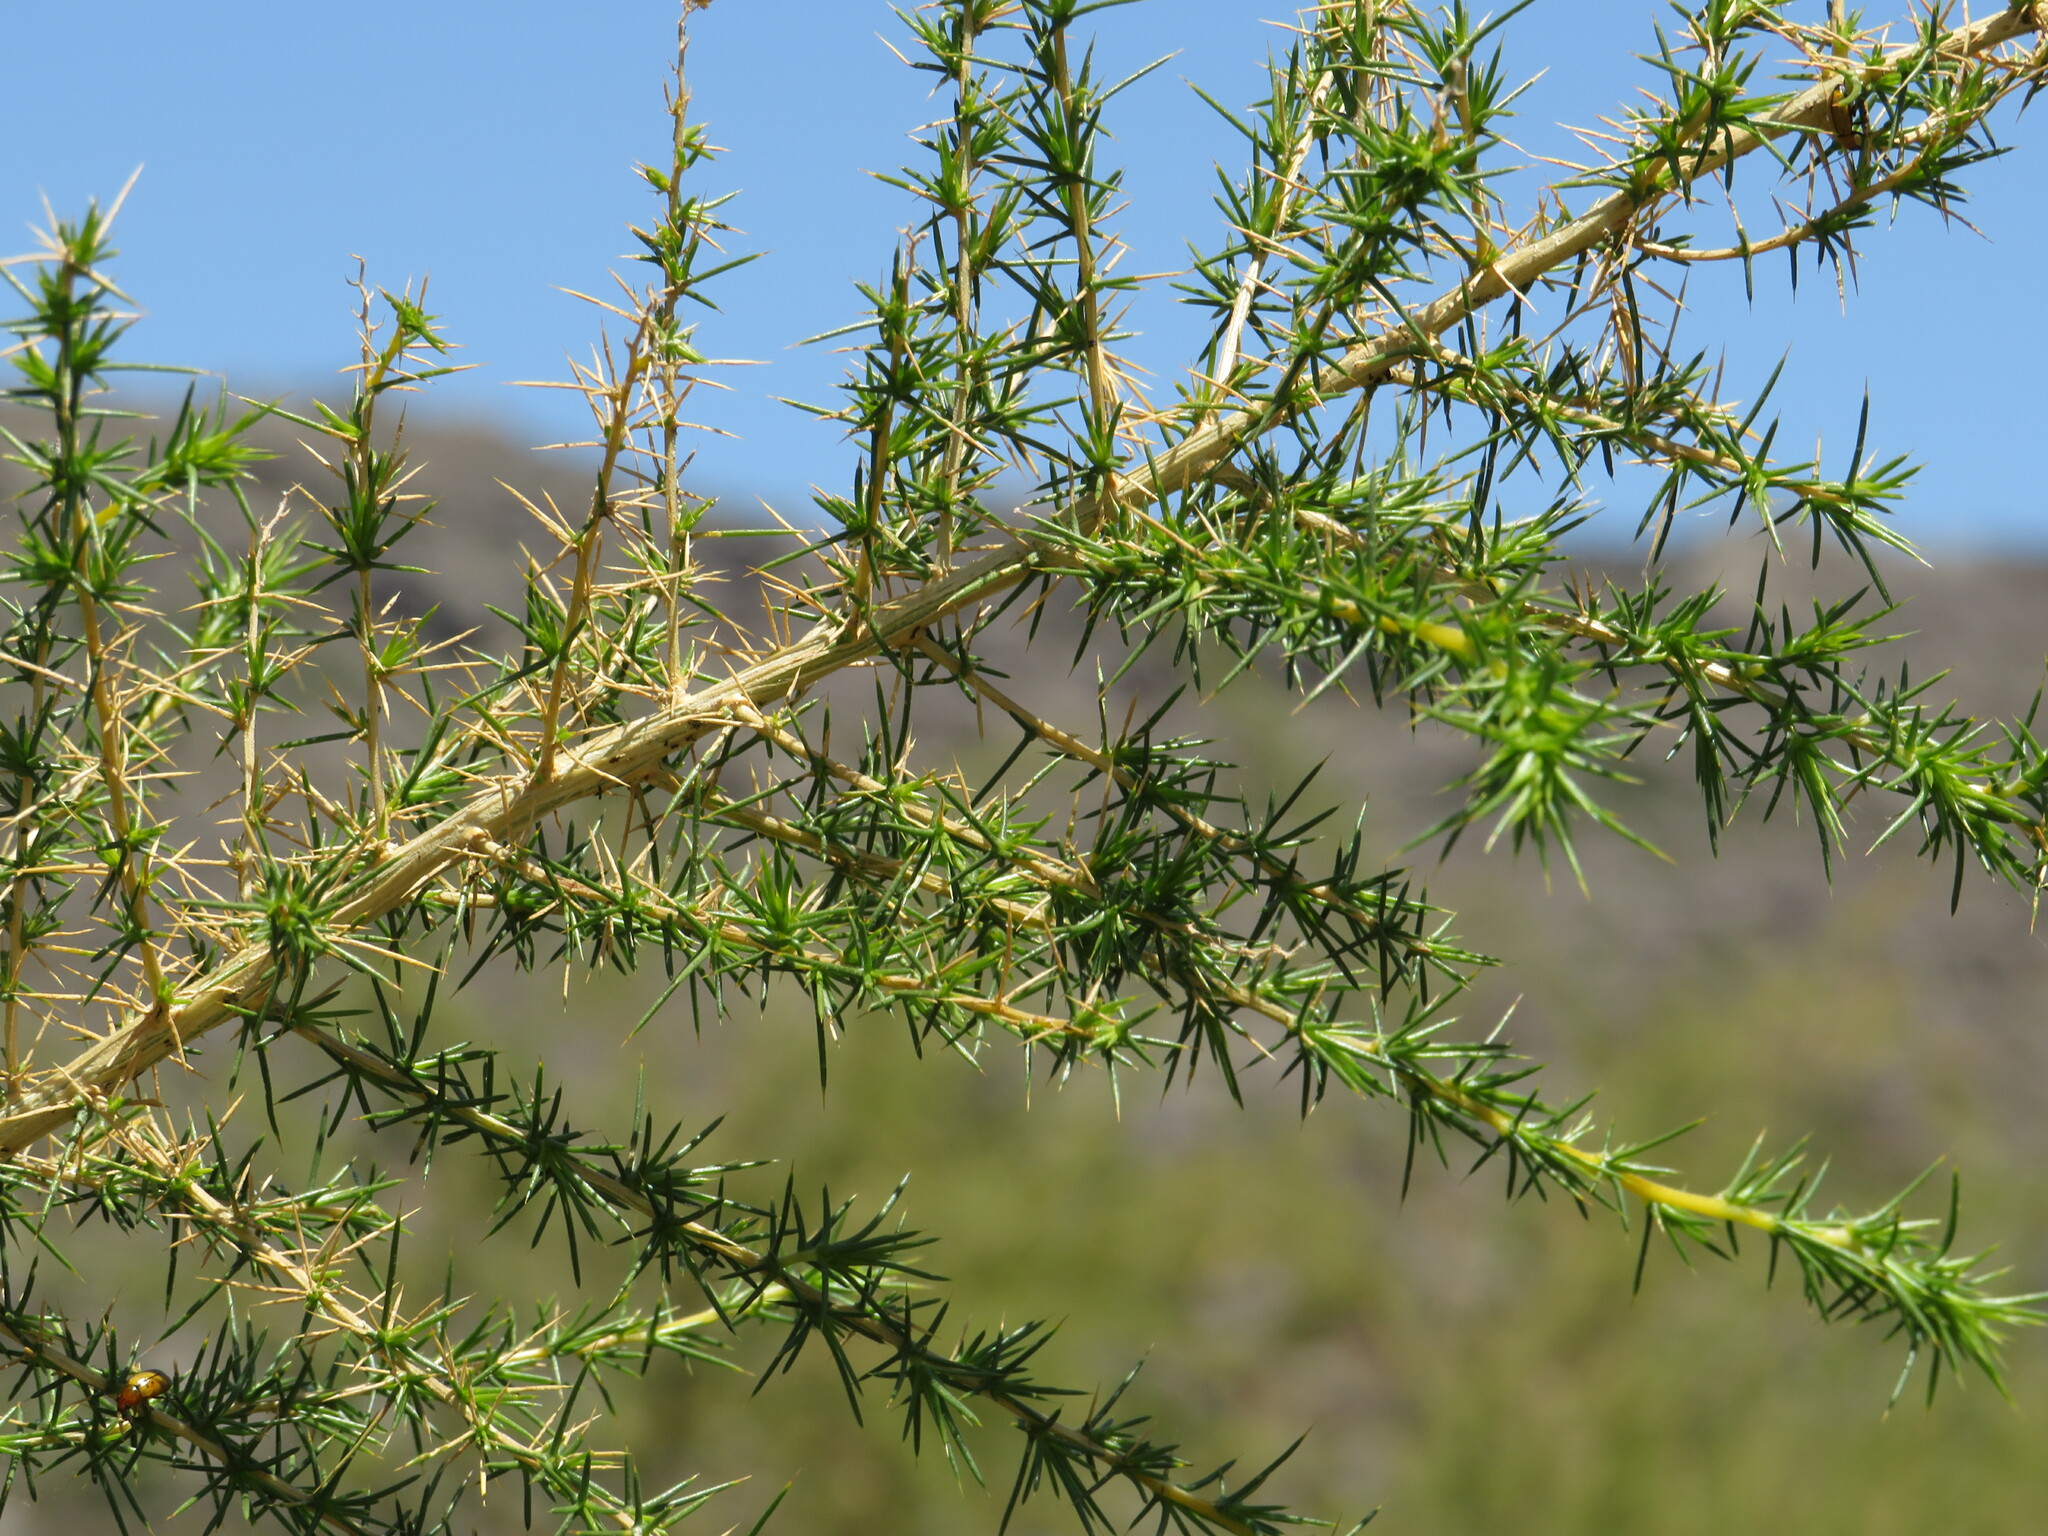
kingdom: Plantae
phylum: Tracheophyta
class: Magnoliopsida
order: Fabales
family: Fabaceae
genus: Aspalathus
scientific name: Aspalathus vulnerans
